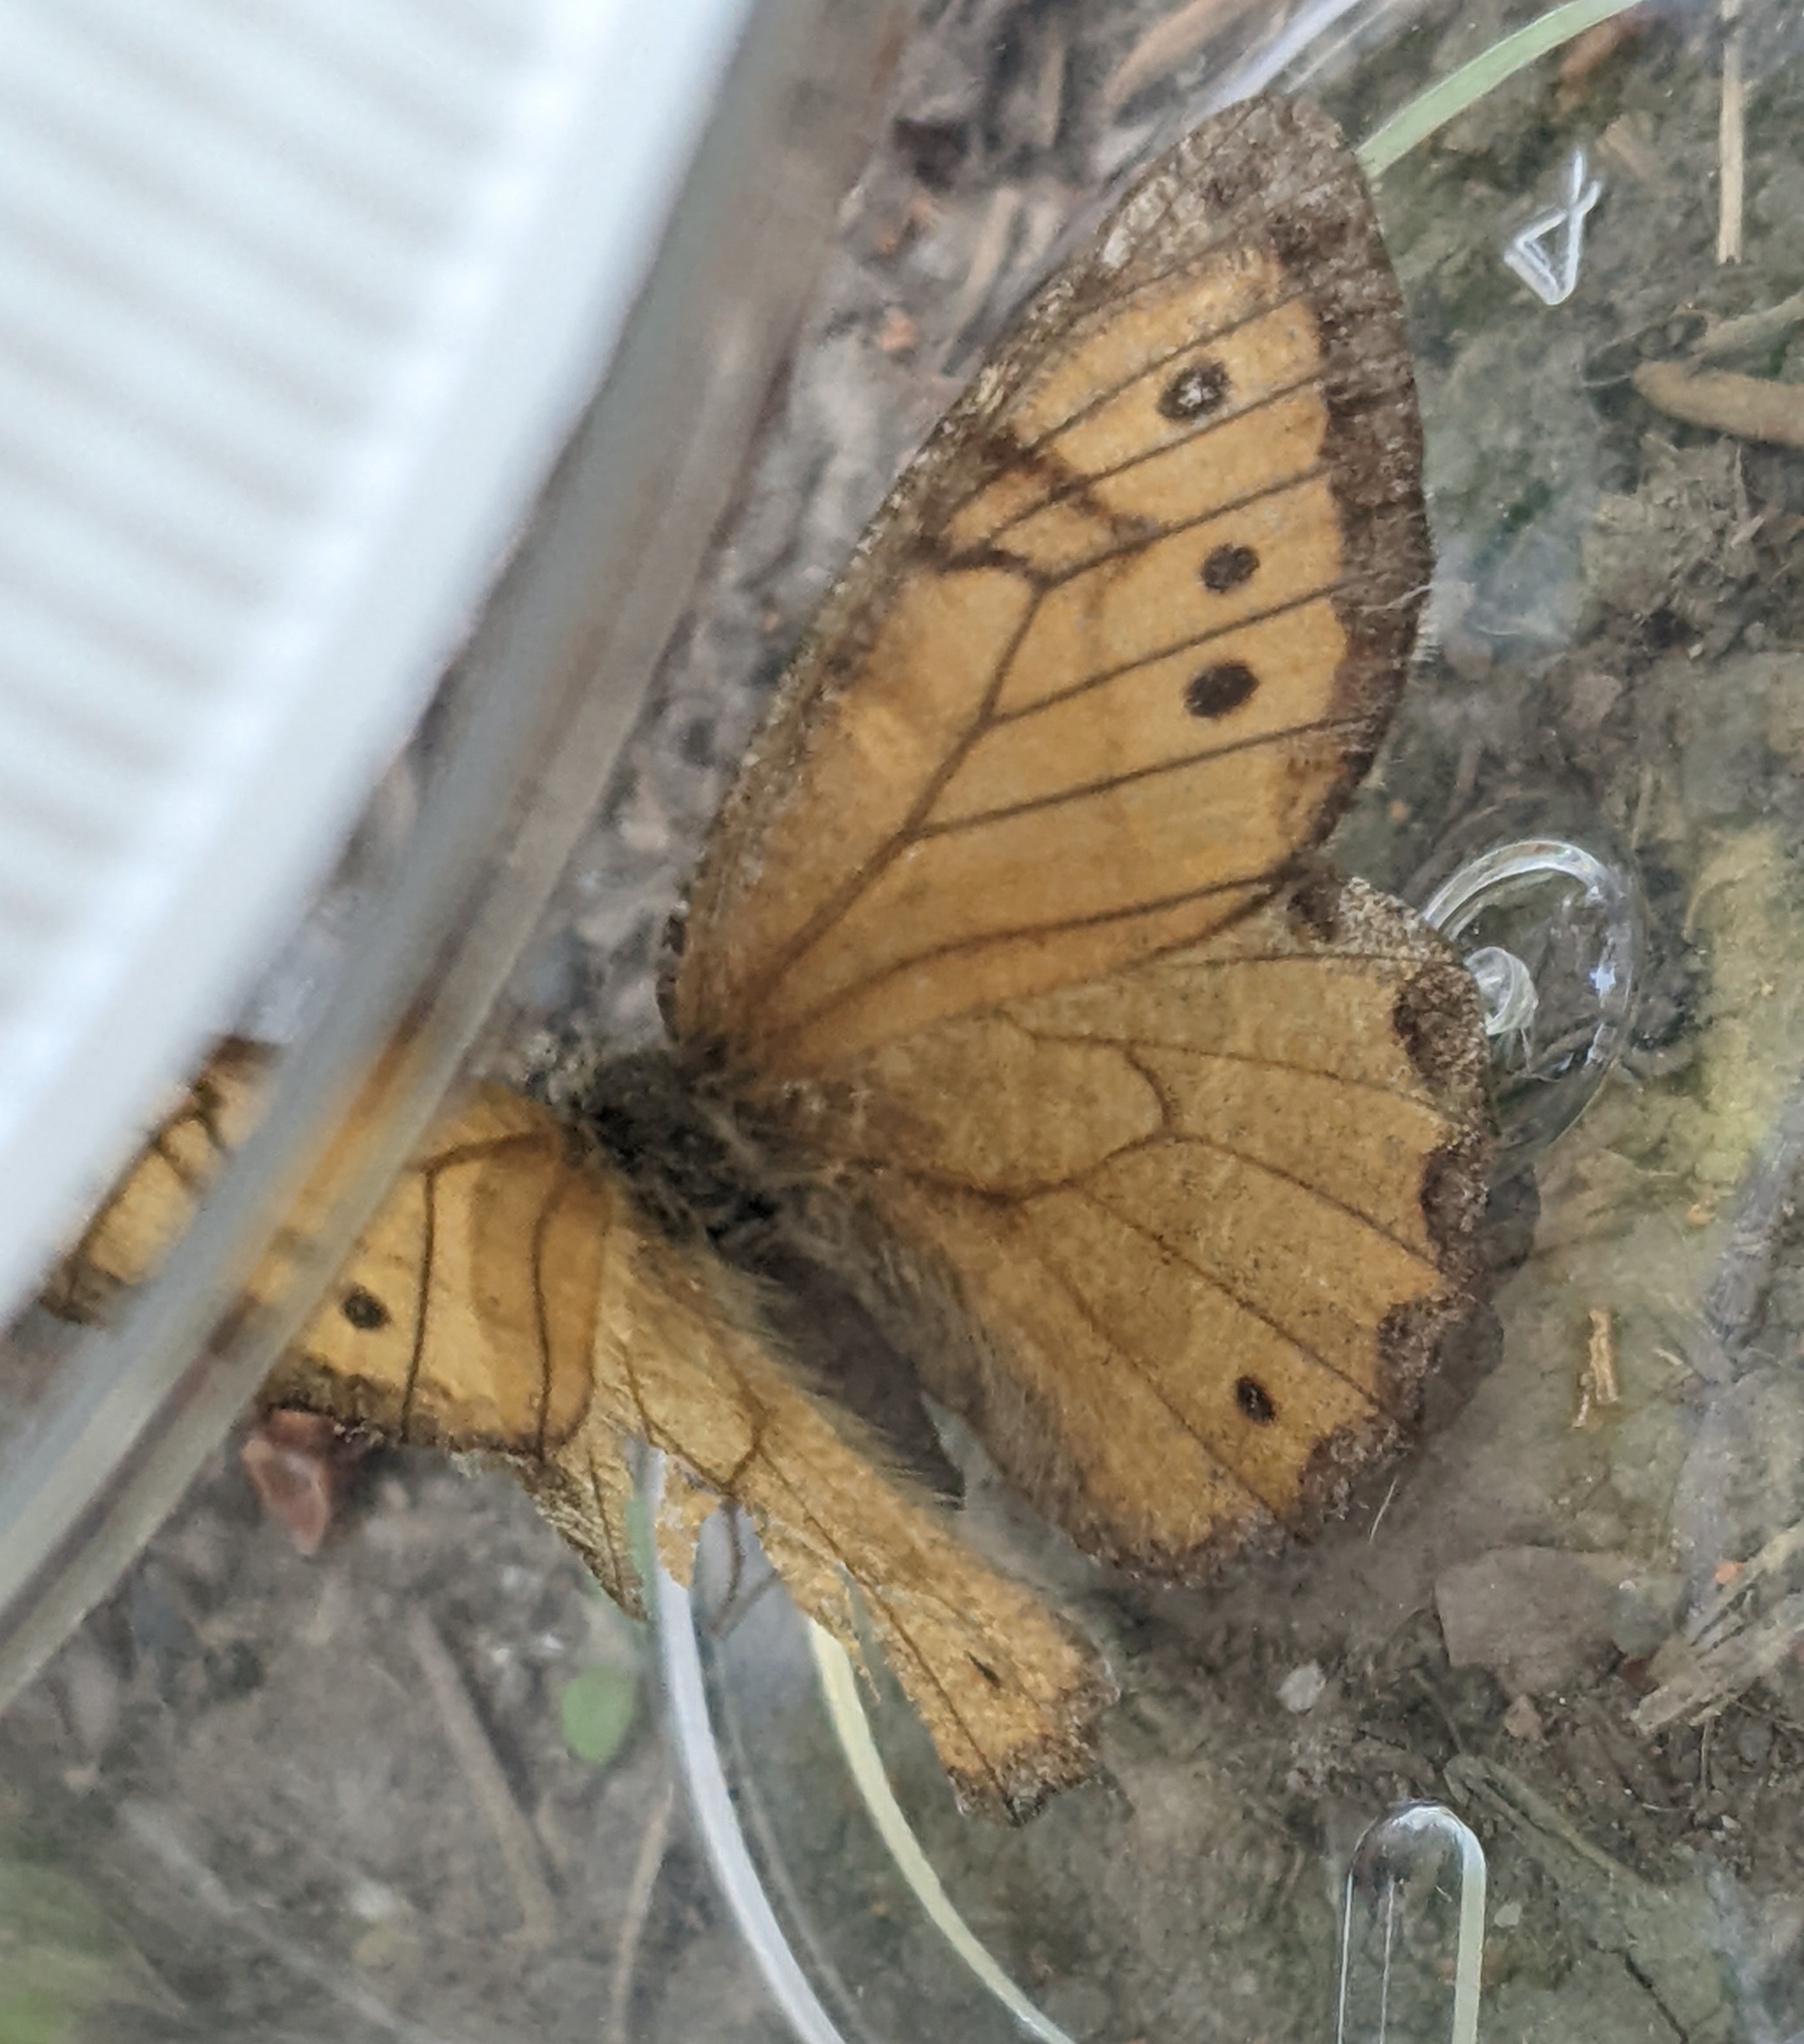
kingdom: Animalia
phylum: Arthropoda
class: Insecta
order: Lepidoptera
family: Nymphalidae
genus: Oeneis
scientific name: Oeneis chryxus
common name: Chryxus arctic
